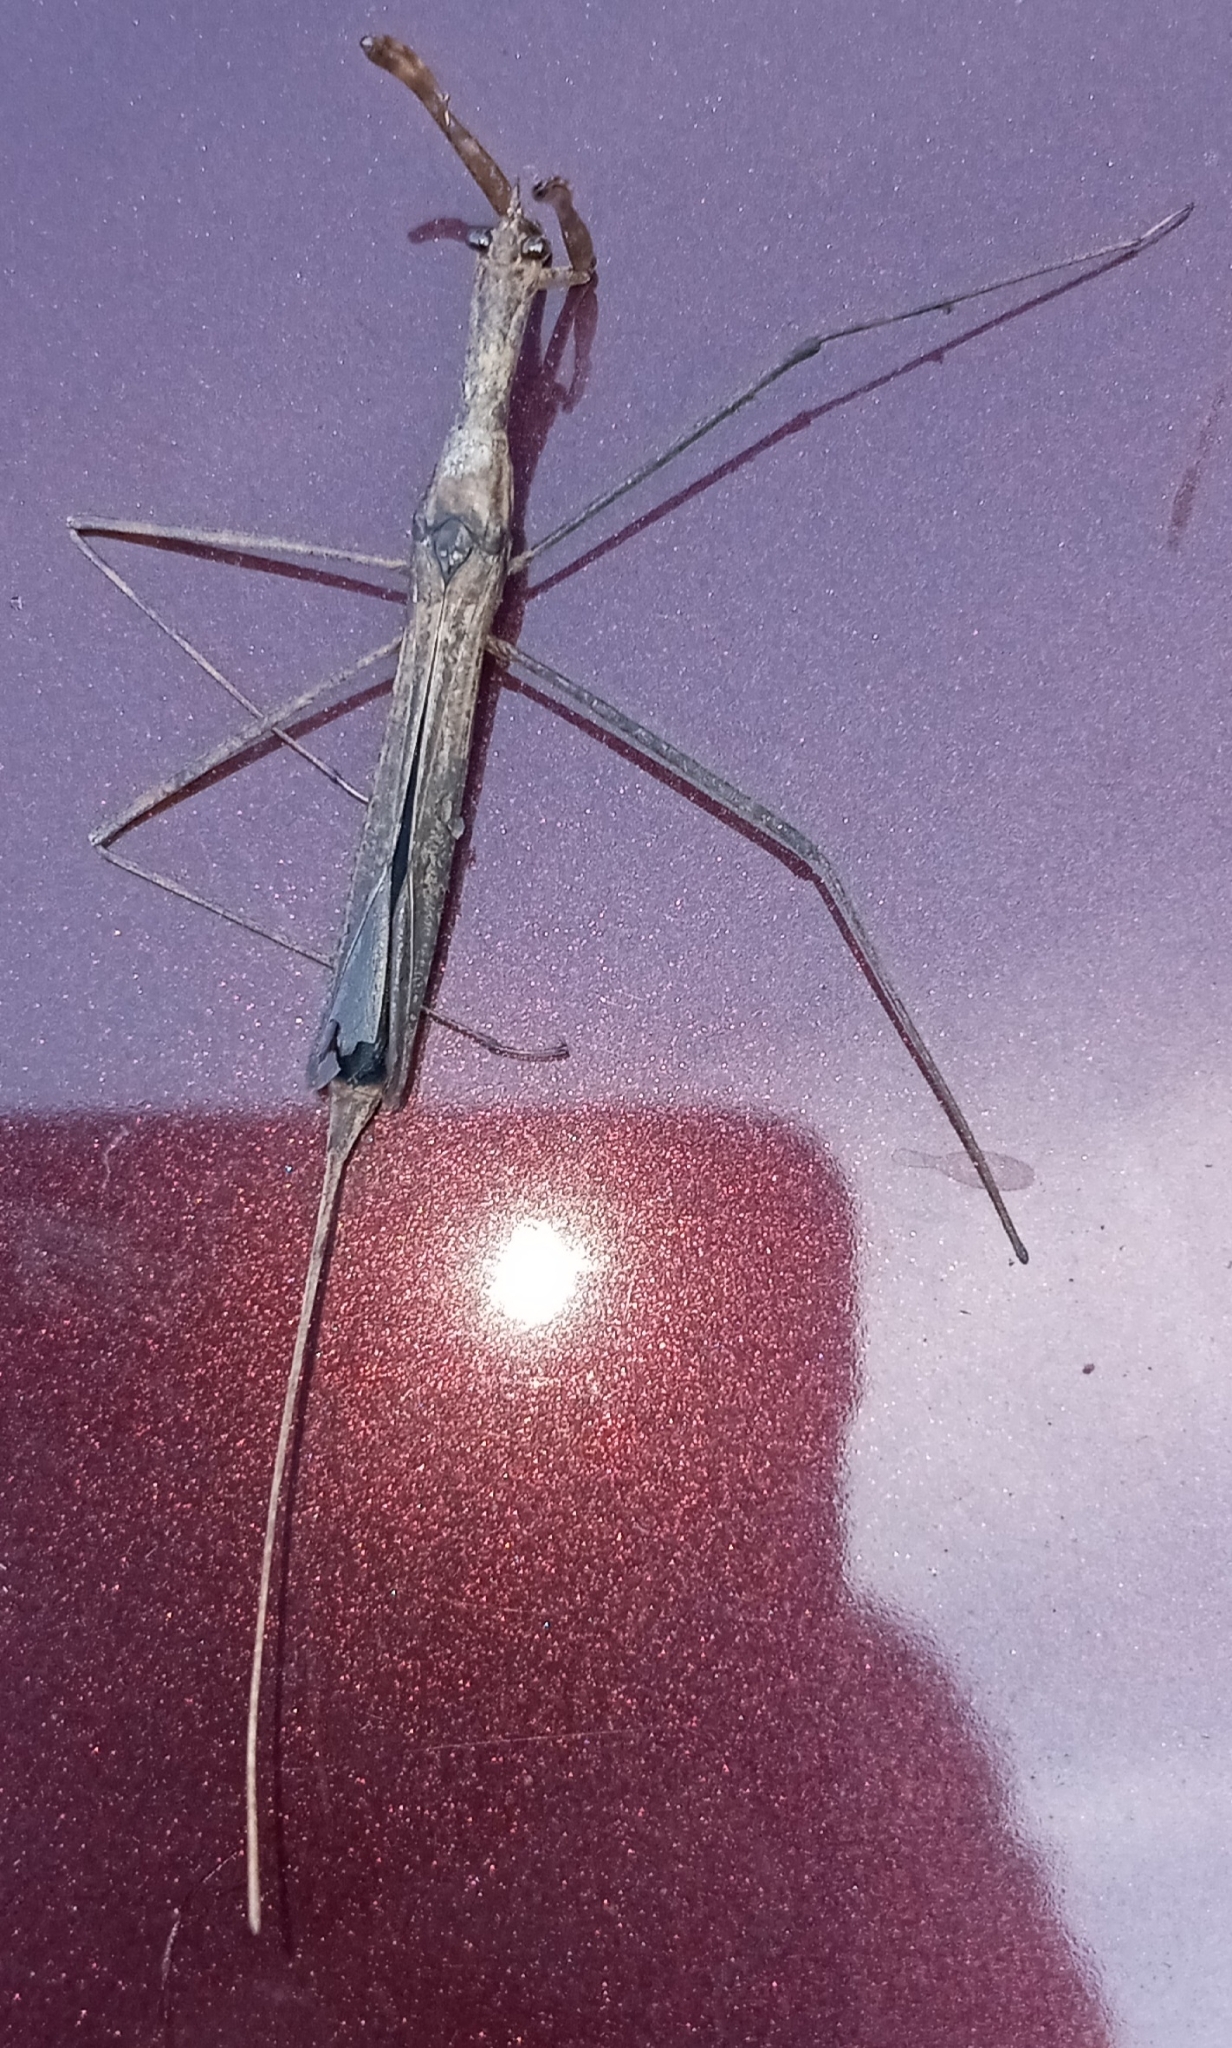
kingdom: Animalia
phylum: Arthropoda
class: Insecta
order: Hemiptera
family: Nepidae
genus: Ranatra
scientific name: Ranatra
